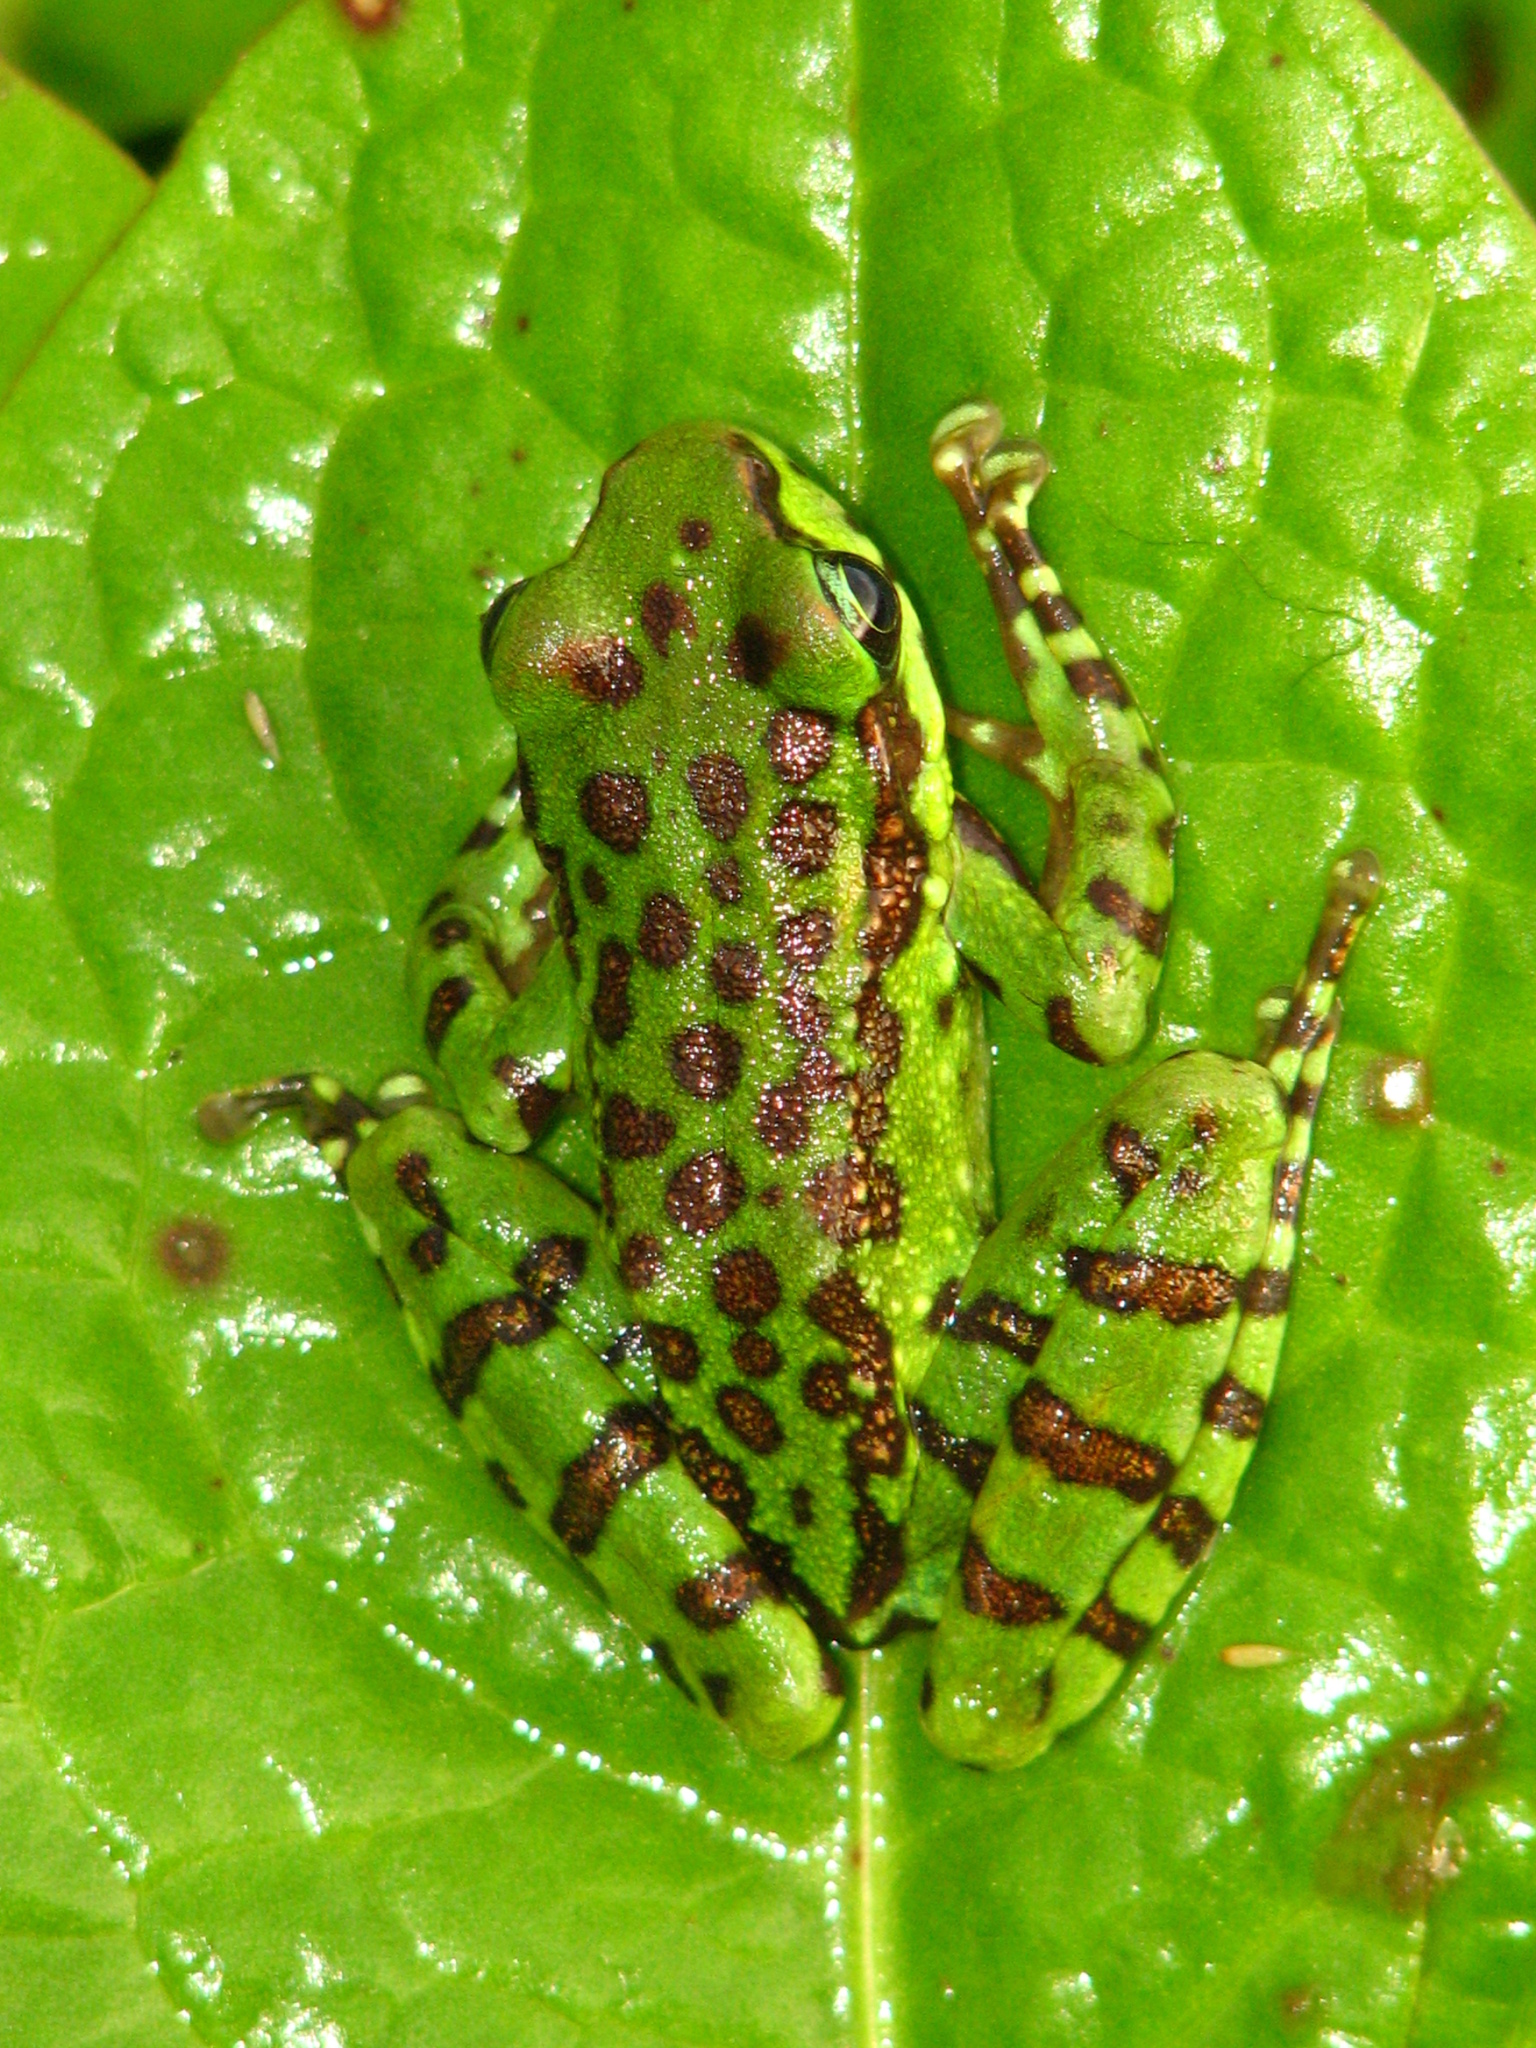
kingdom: Animalia
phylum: Chordata
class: Amphibia
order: Anura
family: Ranidae
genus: Amolops
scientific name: Amolops formosus
